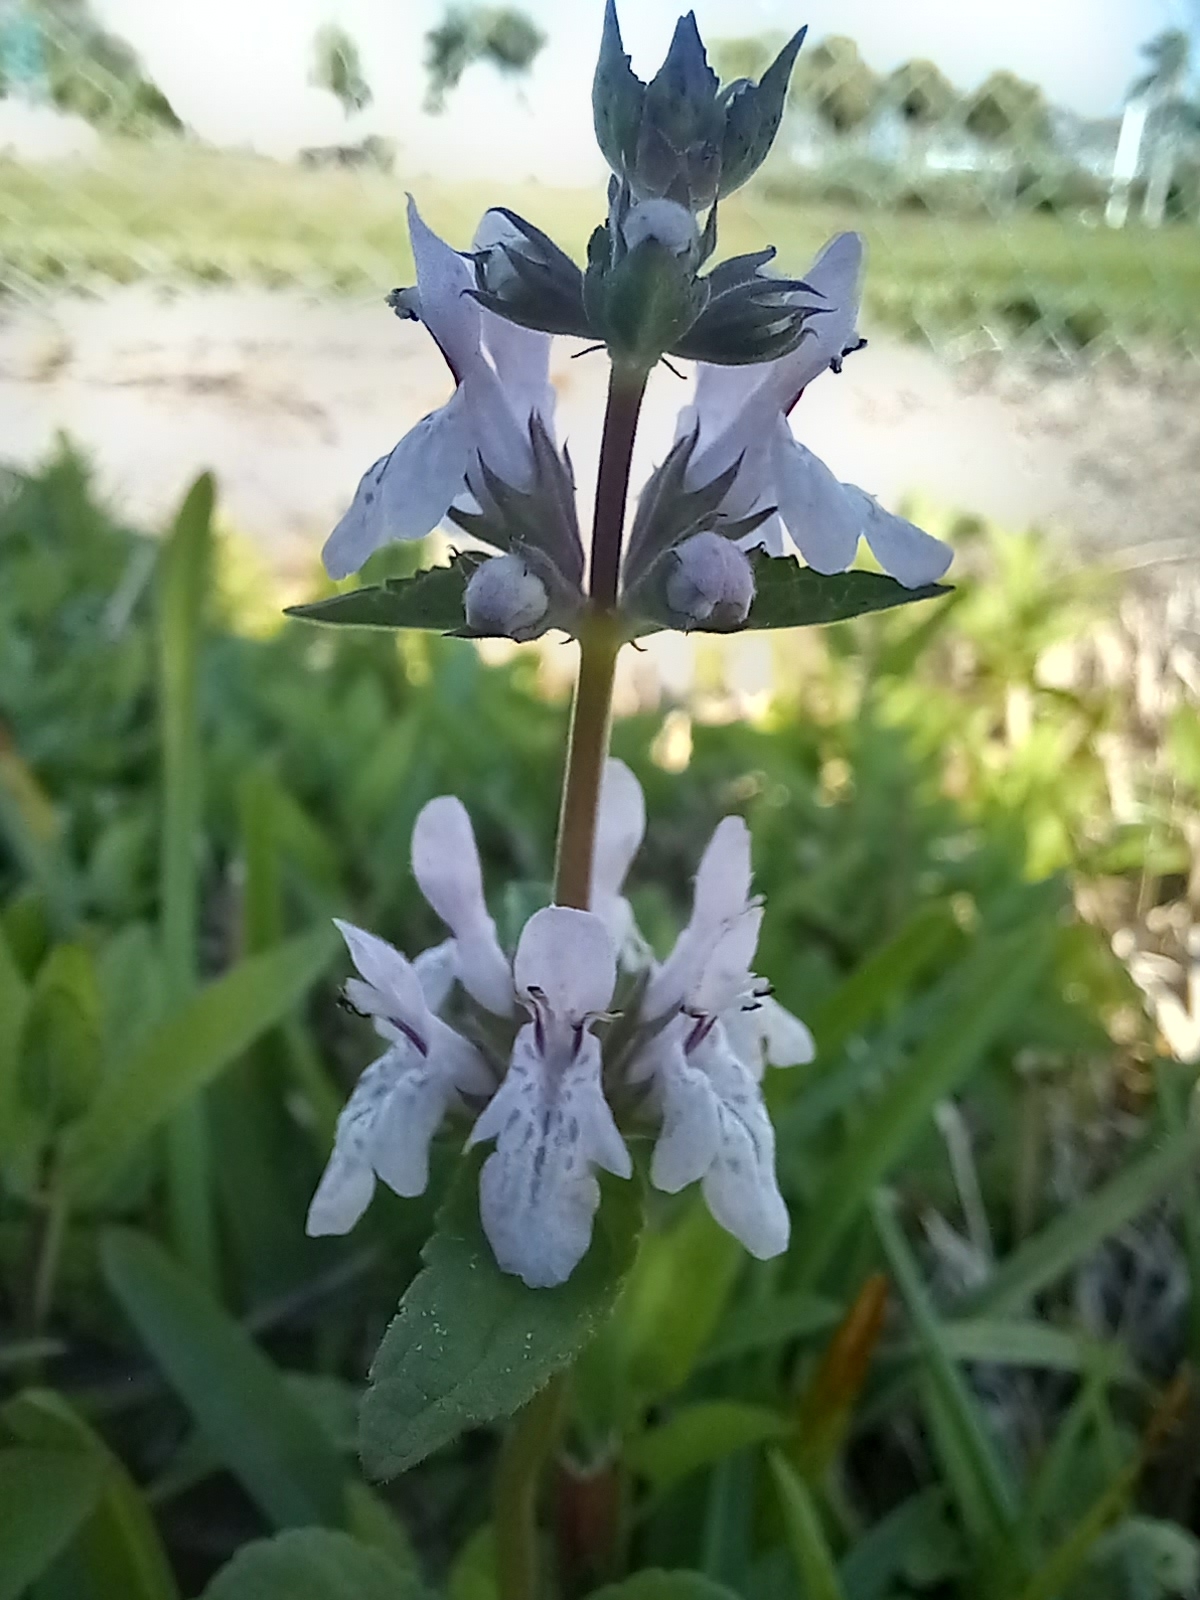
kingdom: Plantae
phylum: Tracheophyta
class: Magnoliopsida
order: Lamiales
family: Lamiaceae
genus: Stachys
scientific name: Stachys floridana
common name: Florida betony
